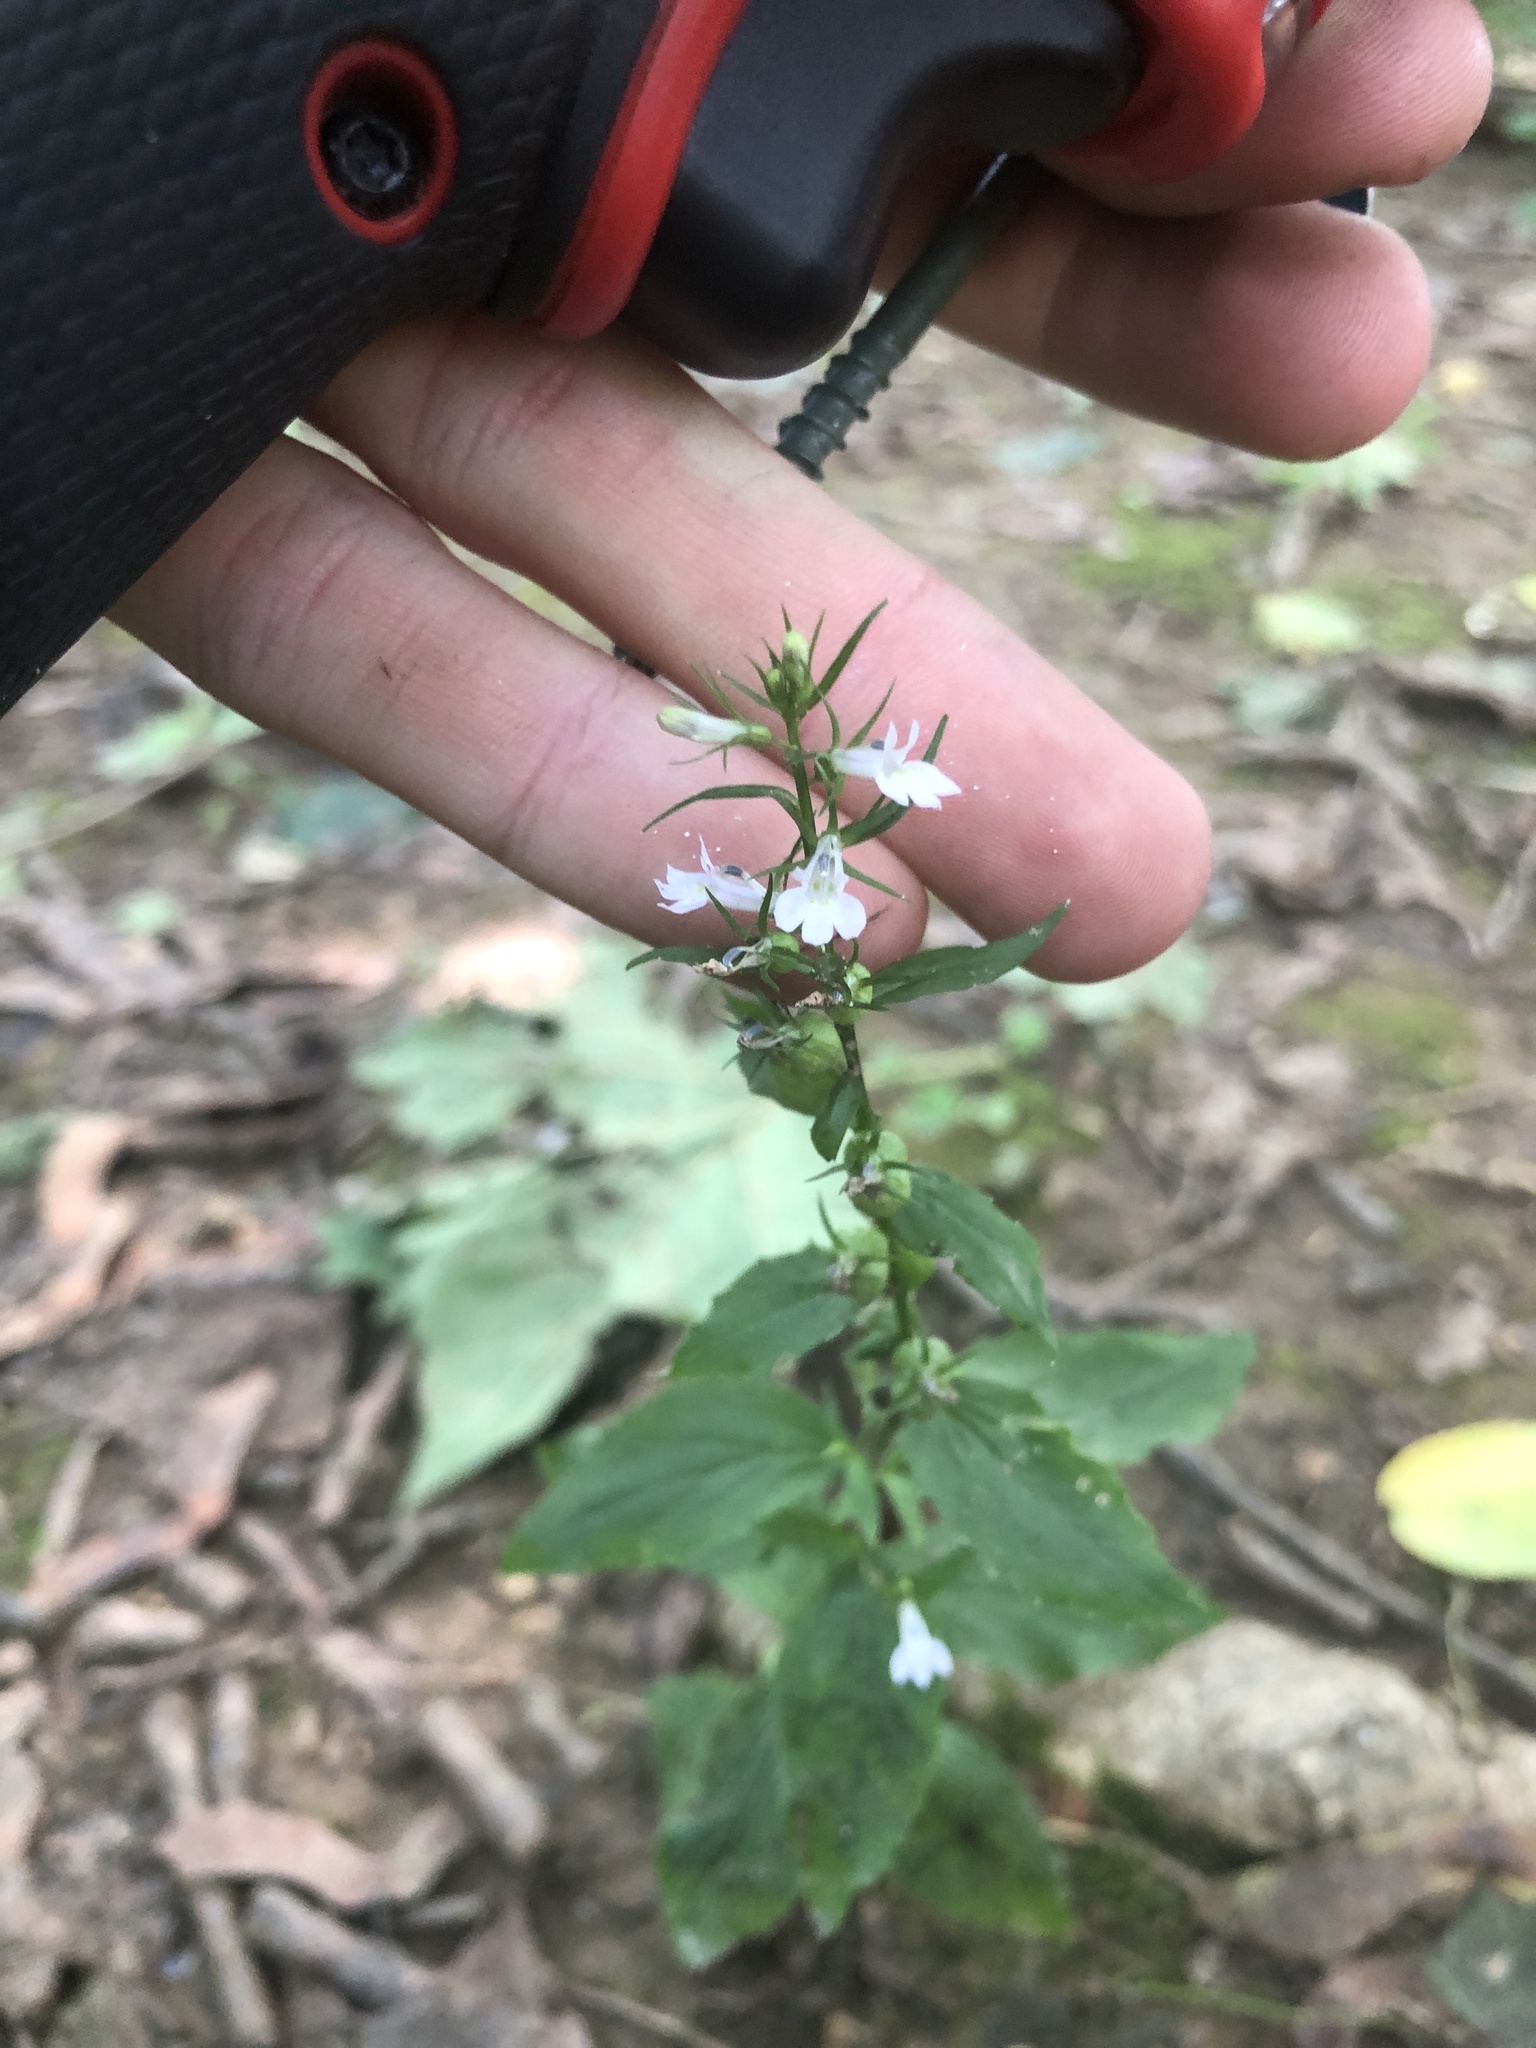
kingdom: Plantae
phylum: Tracheophyta
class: Magnoliopsida
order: Asterales
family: Campanulaceae
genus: Lobelia
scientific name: Lobelia inflata
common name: Indian tobacco
